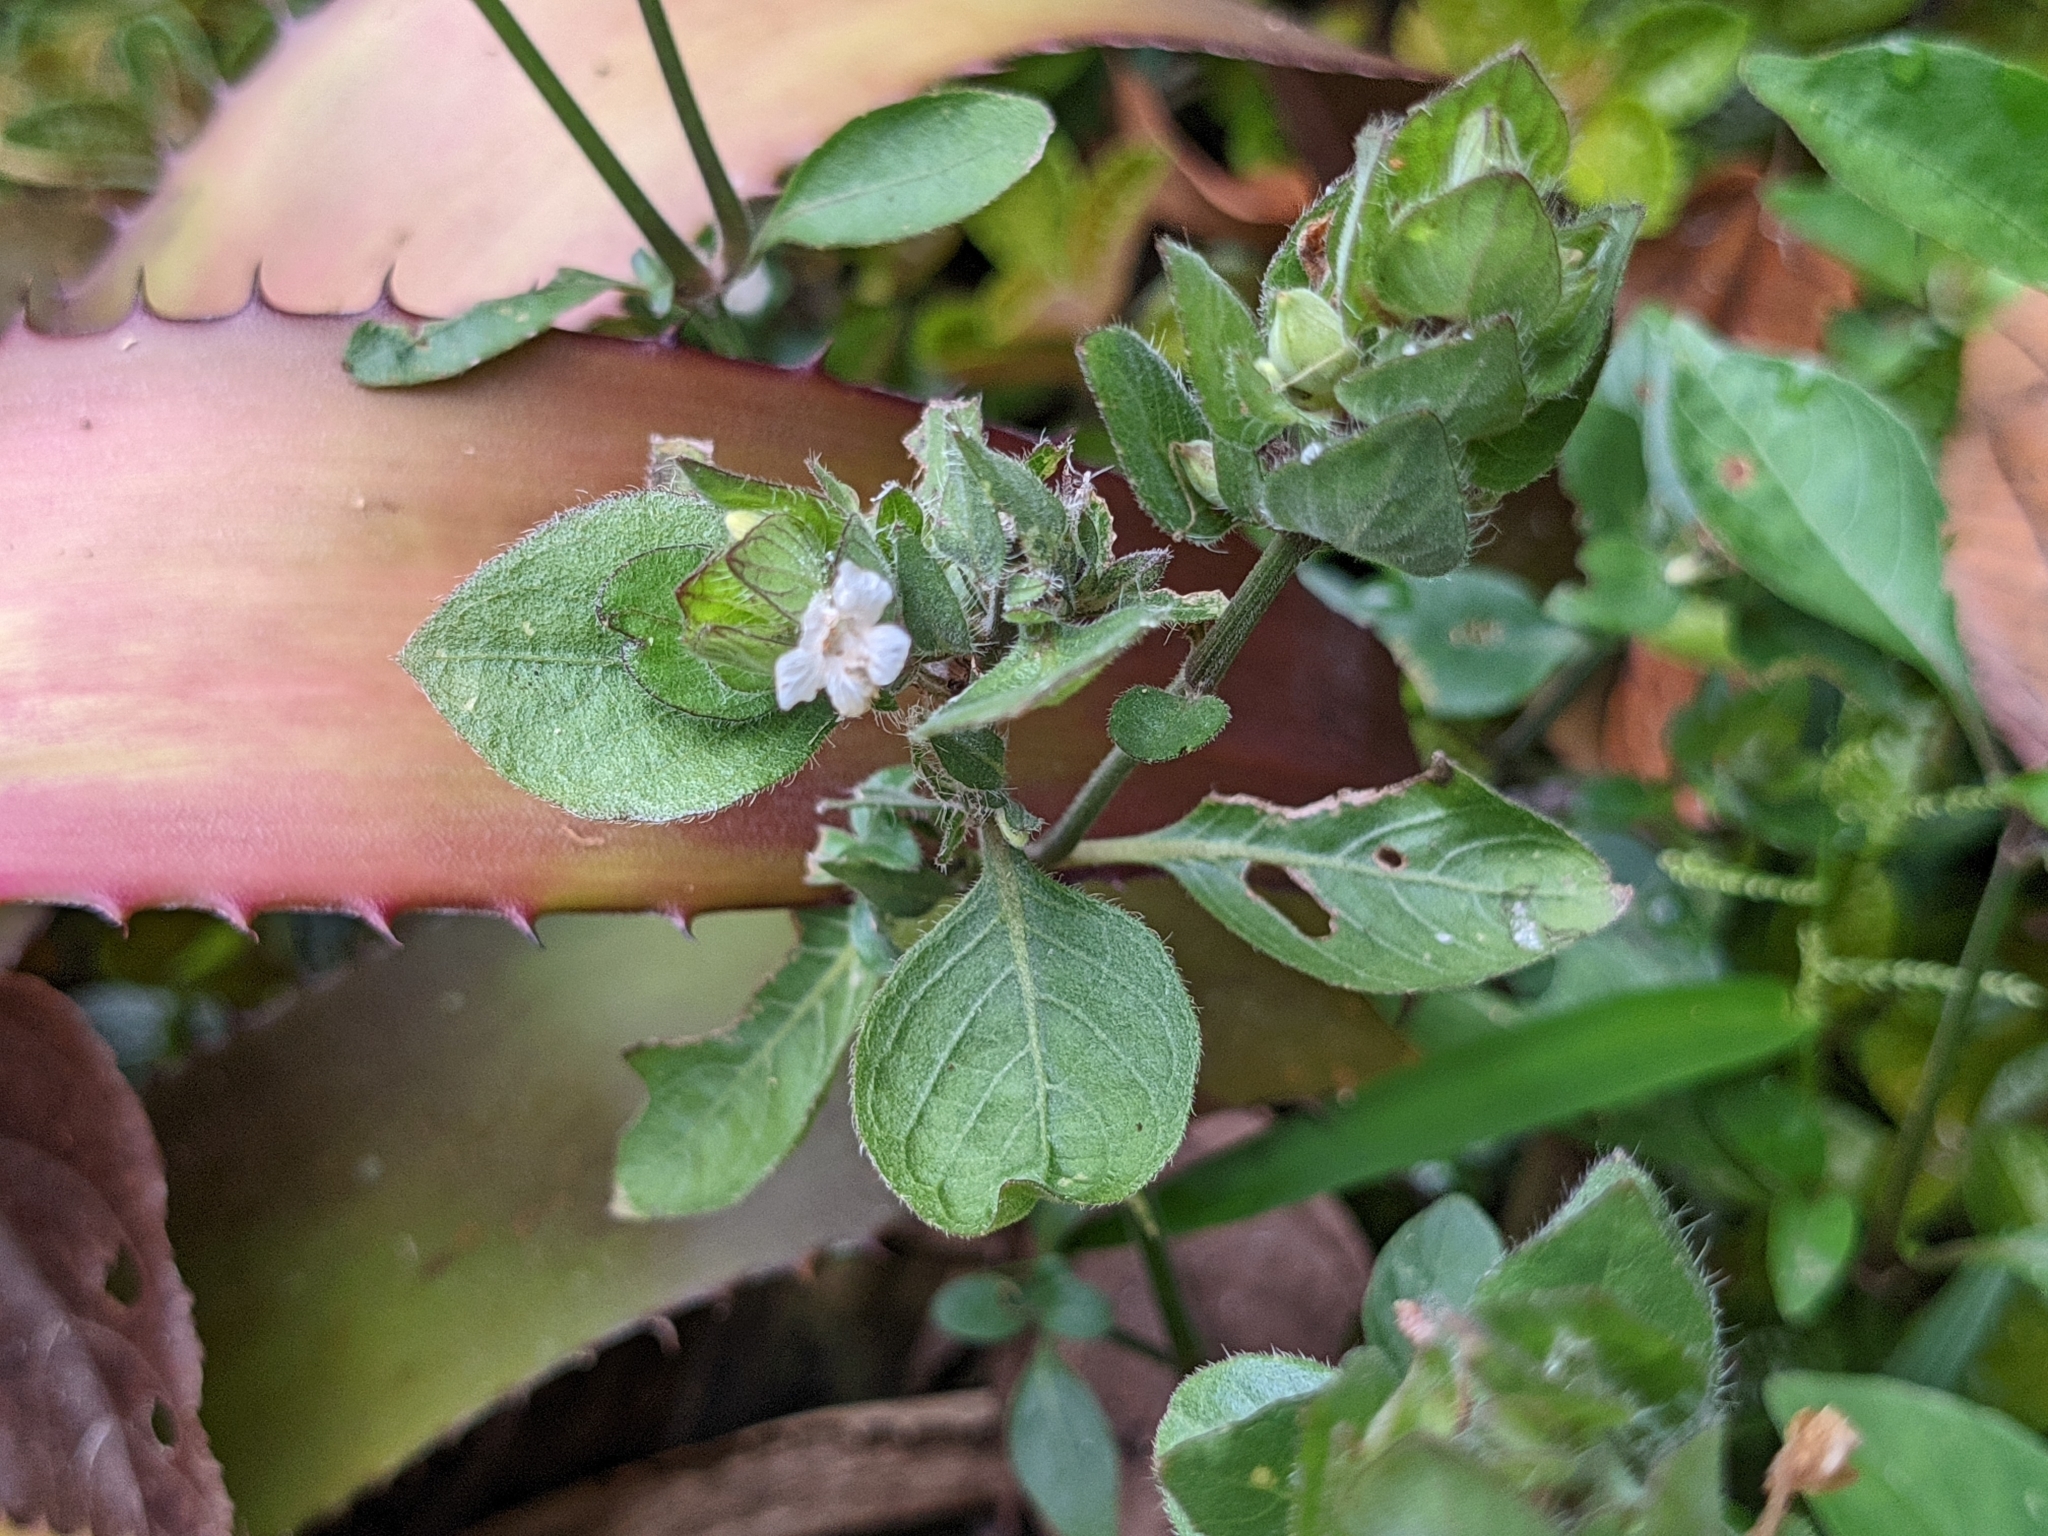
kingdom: Plantae
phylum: Tracheophyta
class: Magnoliopsida
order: Lamiales
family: Acanthaceae
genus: Ruellia
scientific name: Ruellia blechum
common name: Browne's blechum
